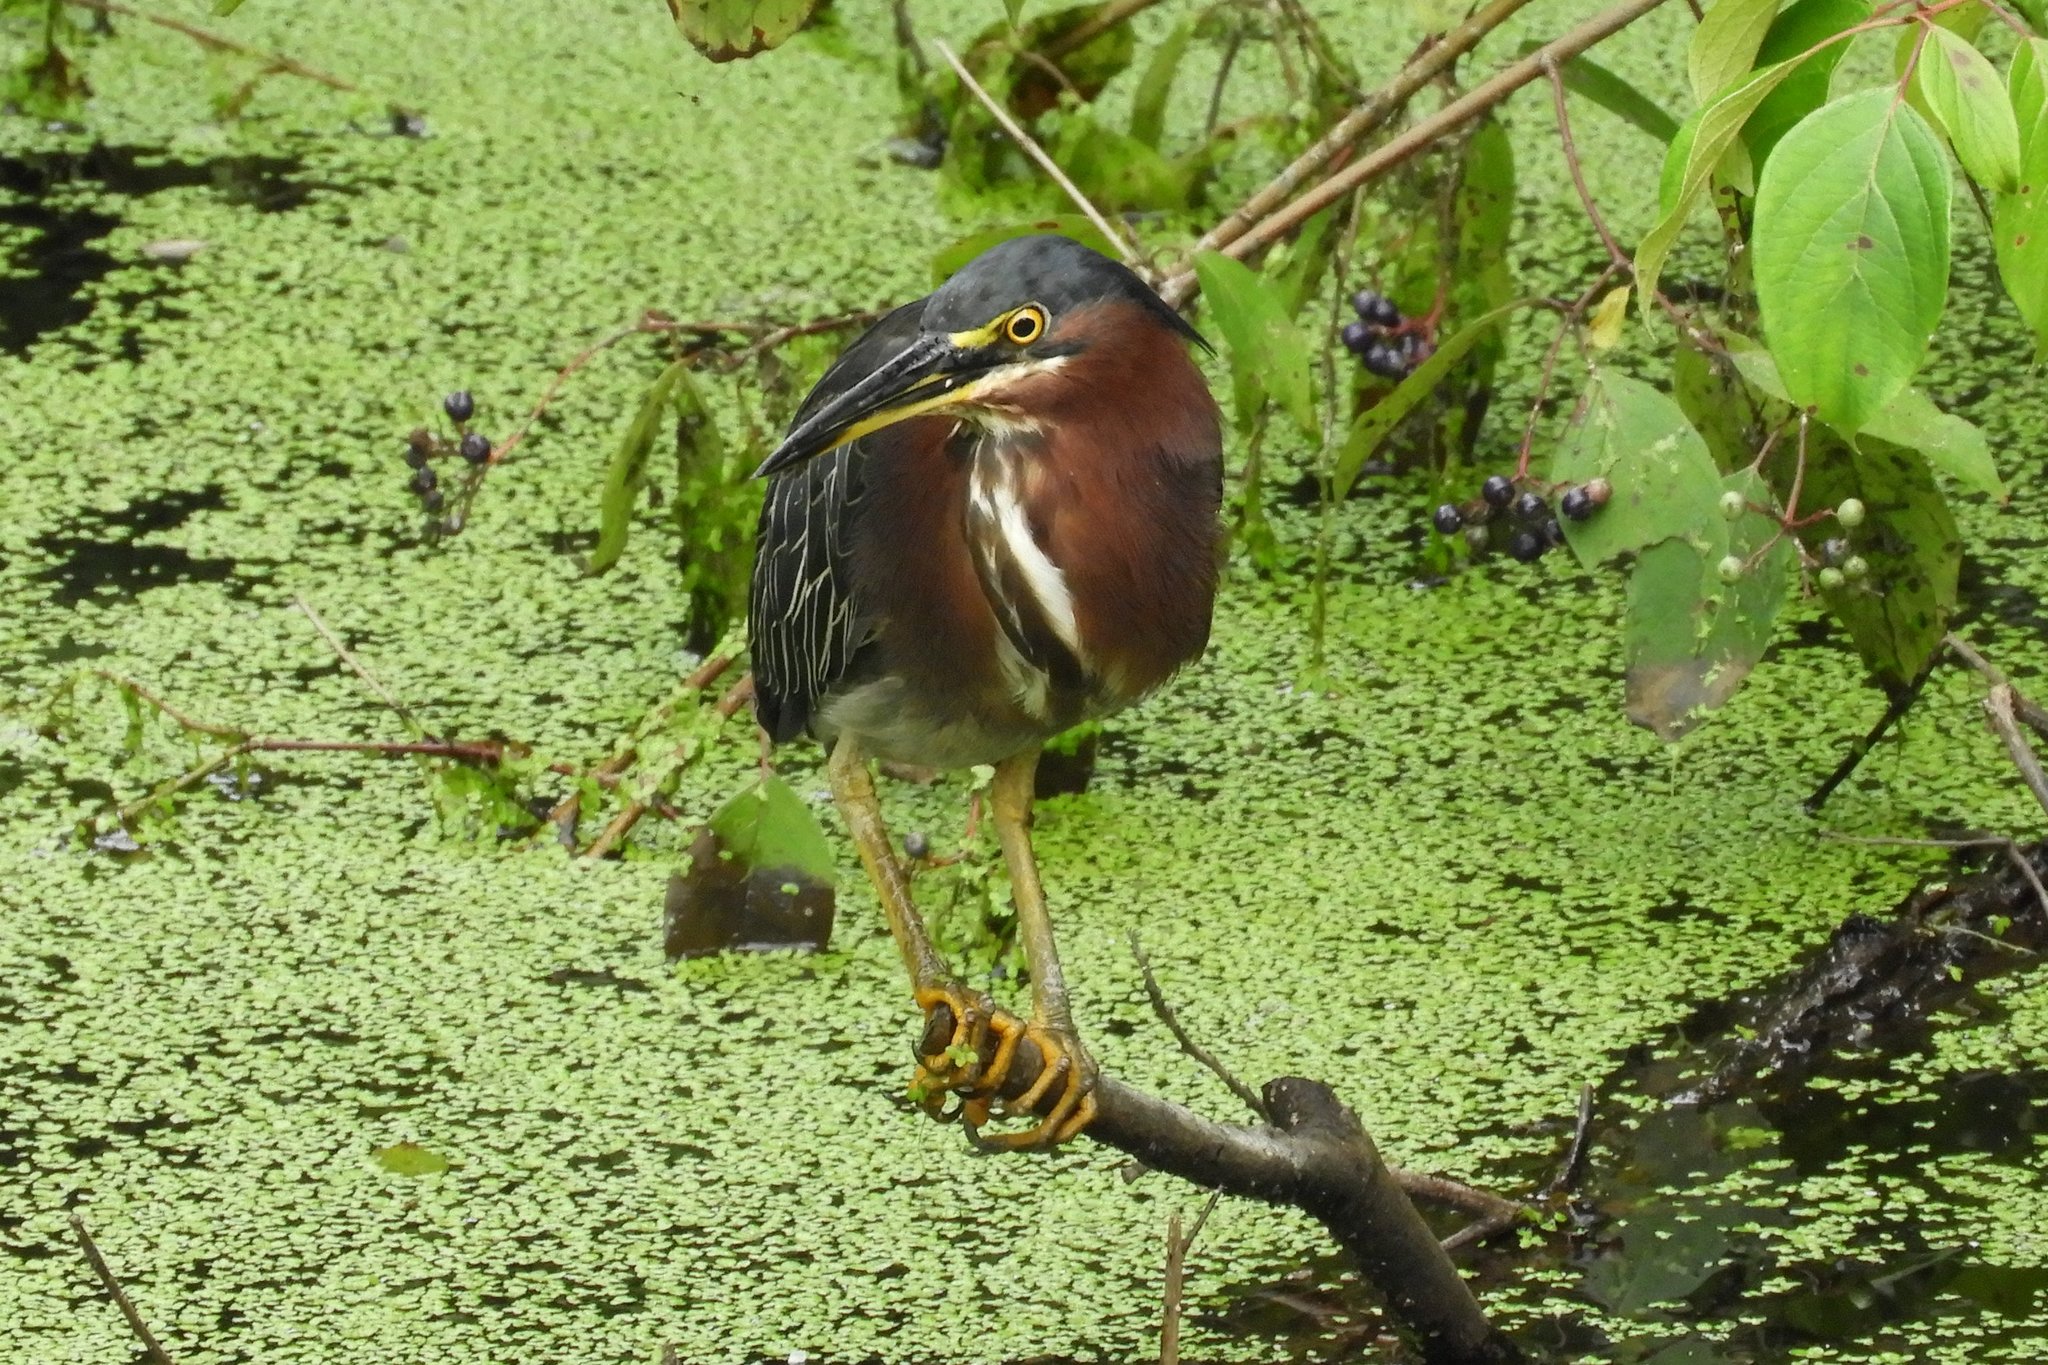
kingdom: Animalia
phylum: Chordata
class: Aves
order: Pelecaniformes
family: Ardeidae
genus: Butorides
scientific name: Butorides virescens
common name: Green heron
